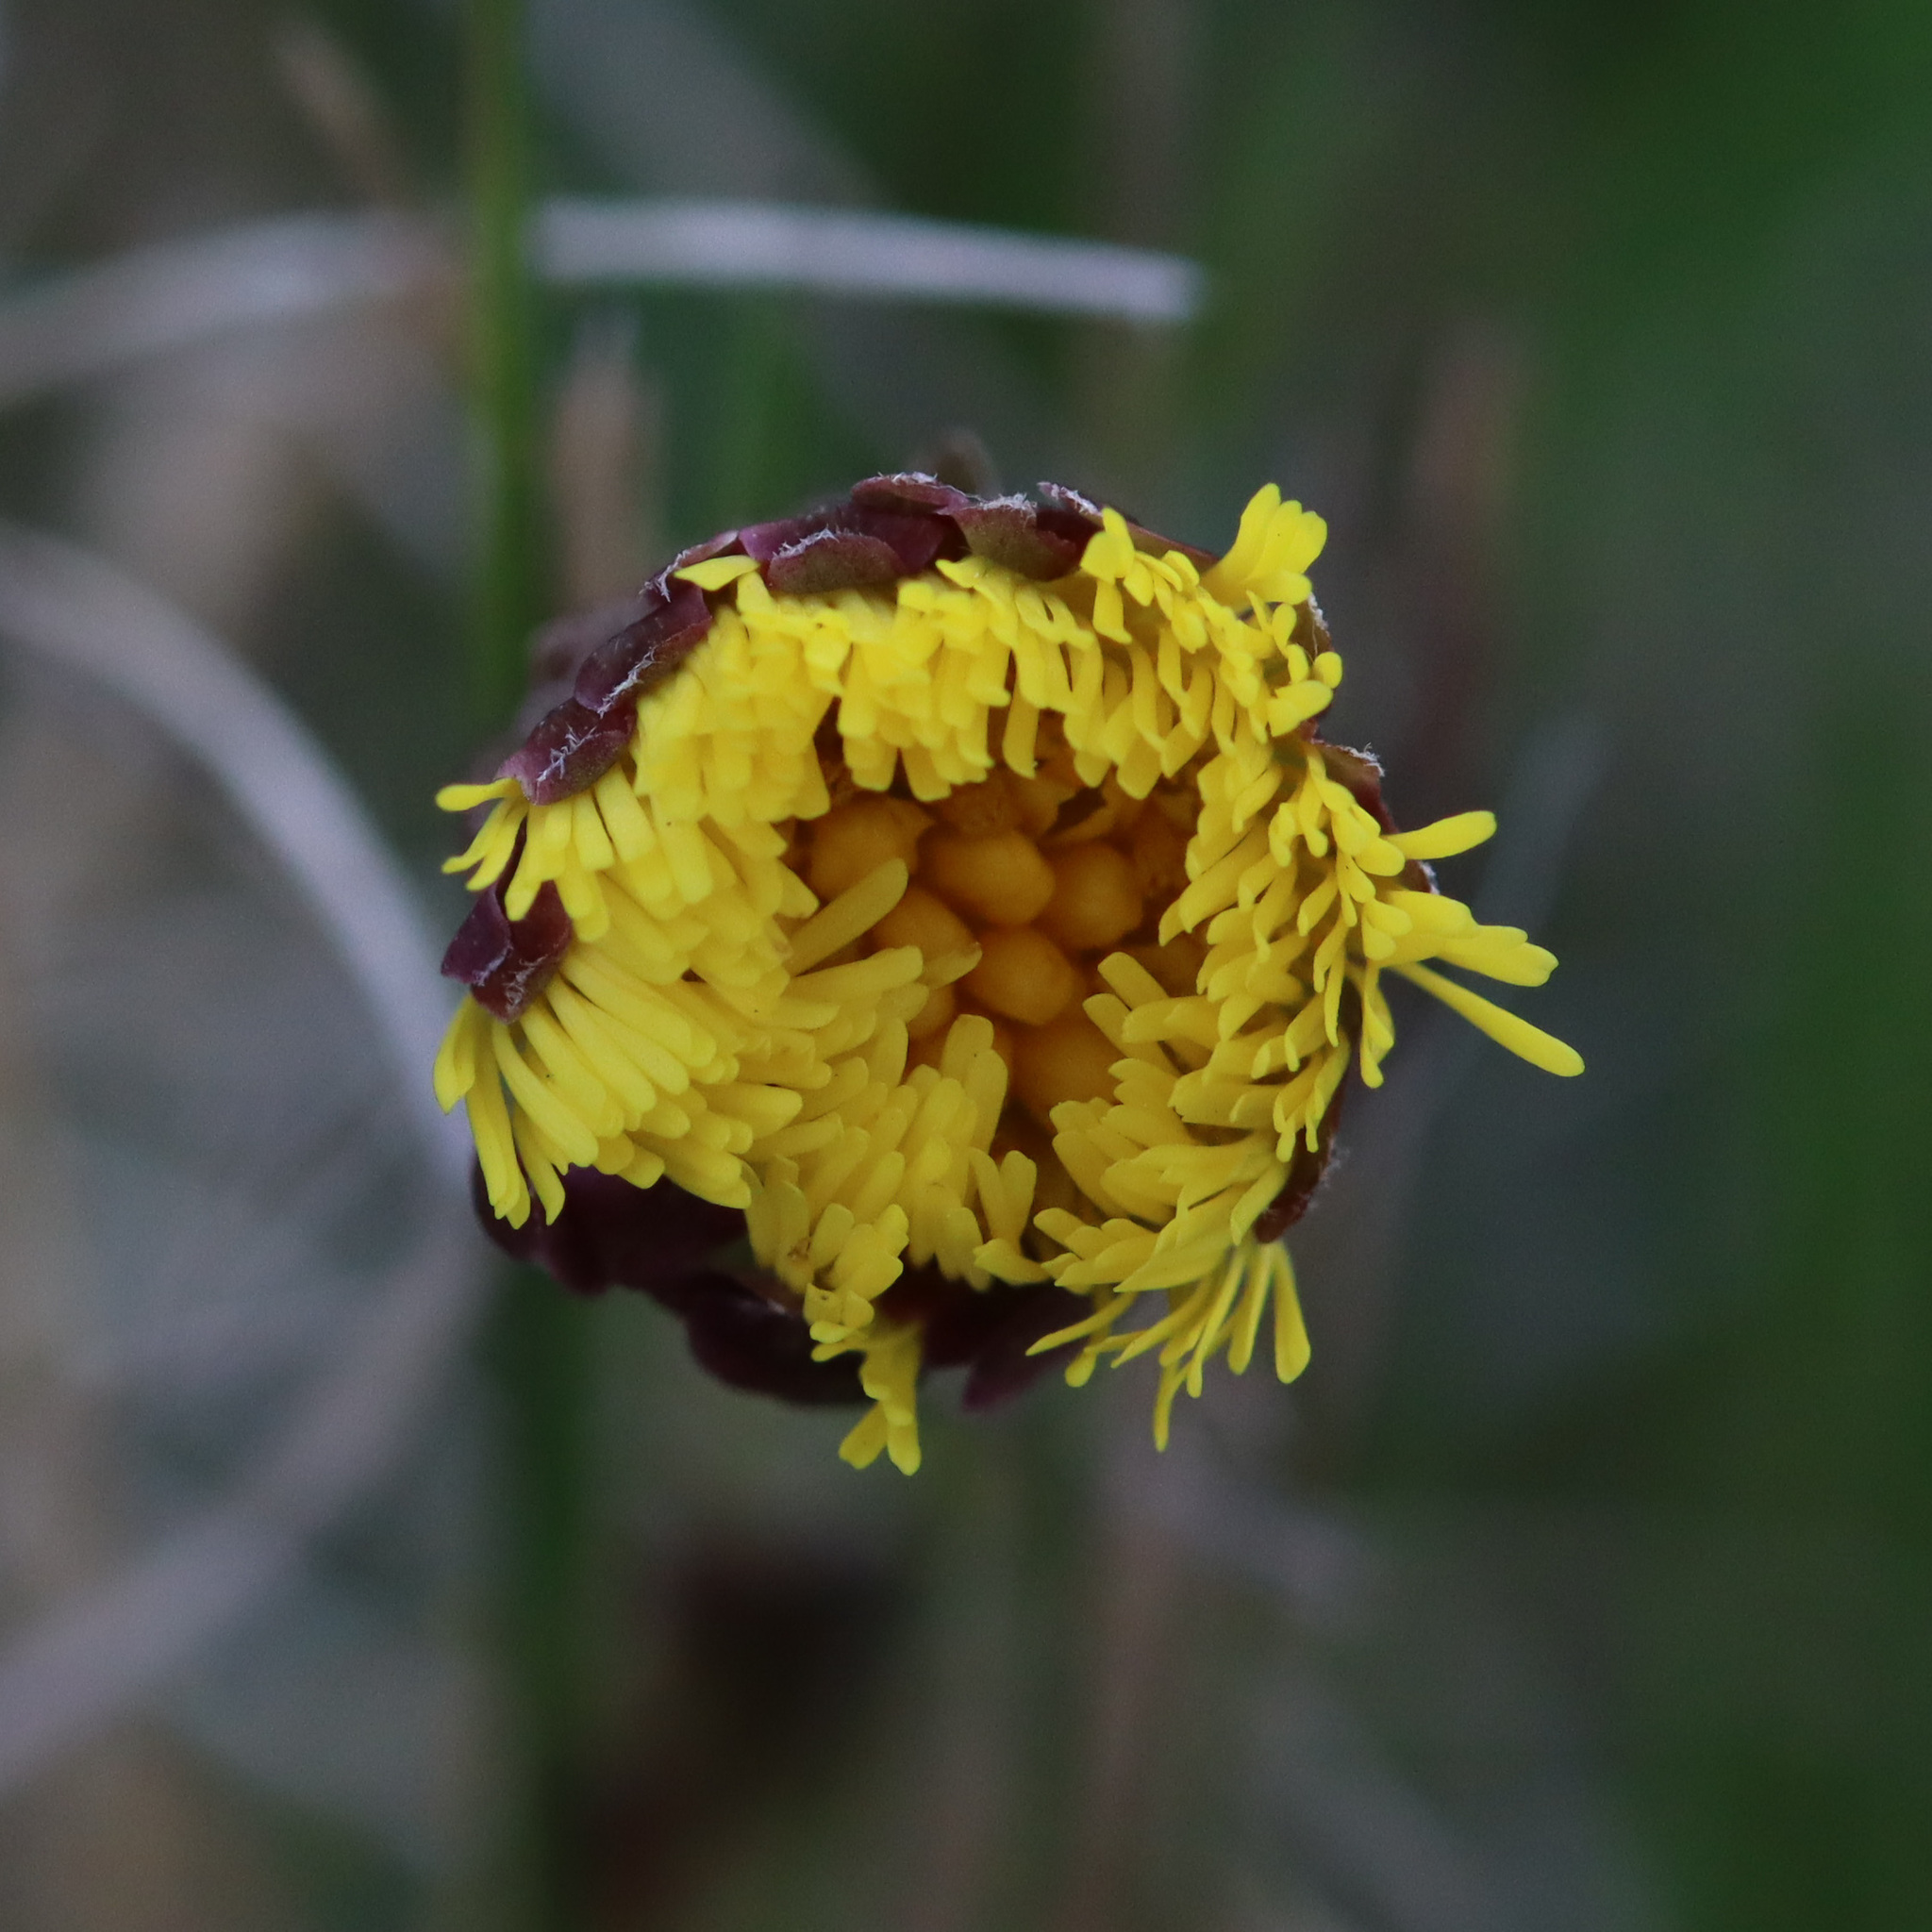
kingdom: Plantae
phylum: Tracheophyta
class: Magnoliopsida
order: Asterales
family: Asteraceae
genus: Tussilago
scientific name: Tussilago farfara
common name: Coltsfoot
